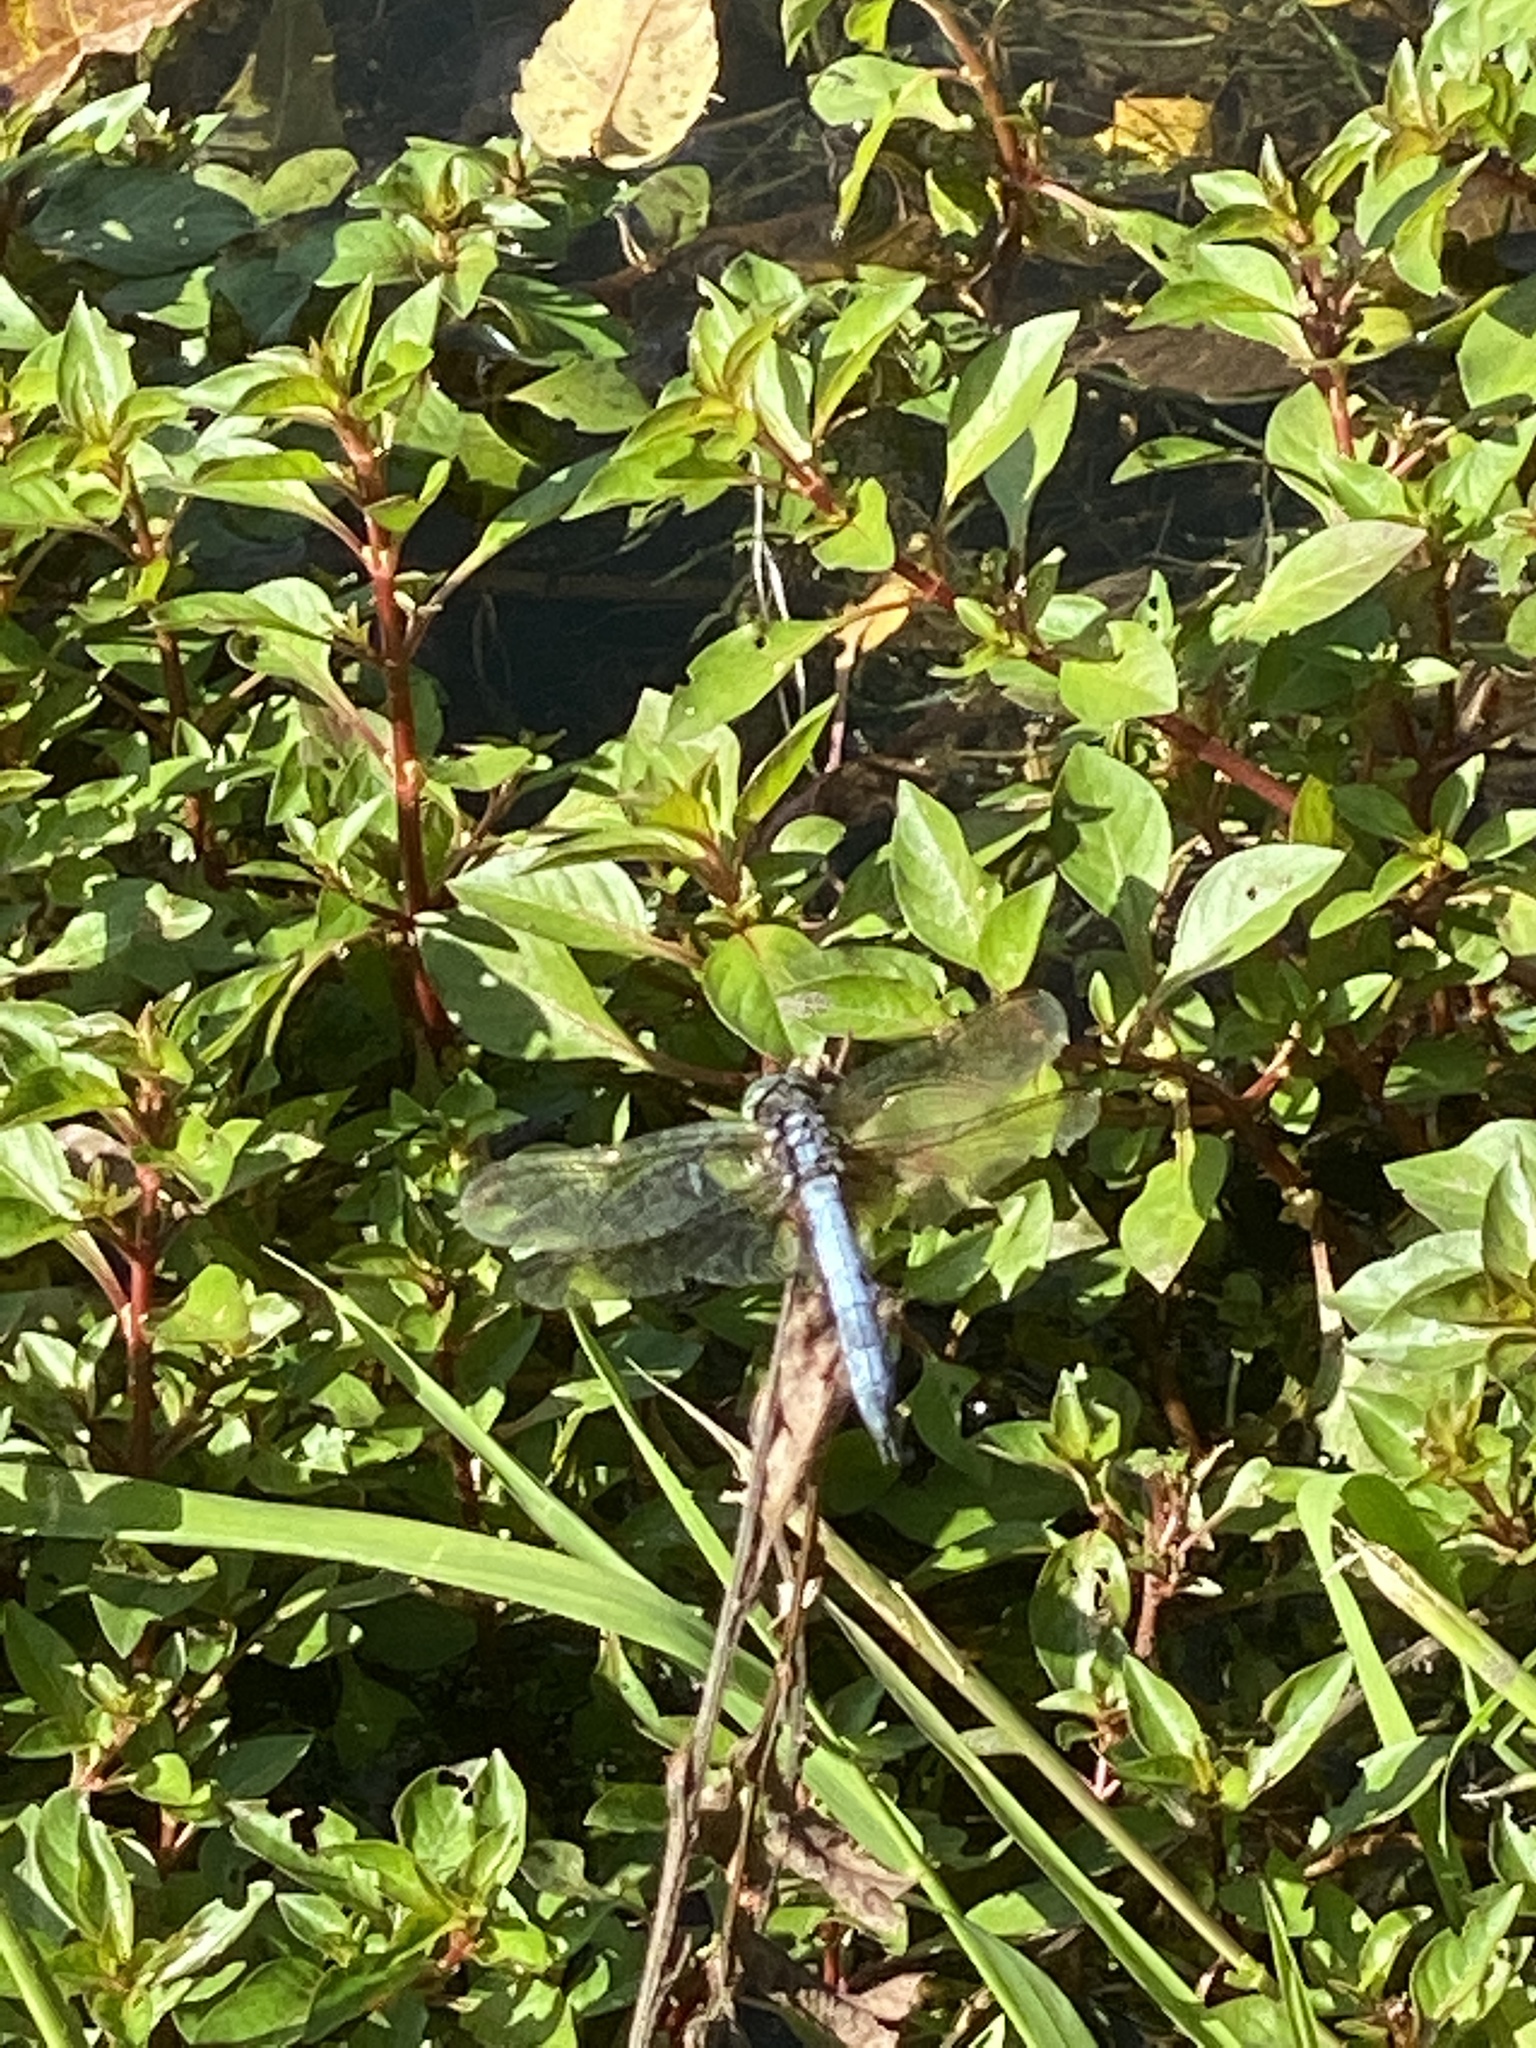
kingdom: Animalia
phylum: Arthropoda
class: Insecta
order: Odonata
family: Libellulidae
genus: Pachydiplax
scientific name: Pachydiplax longipennis
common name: Blue dasher
